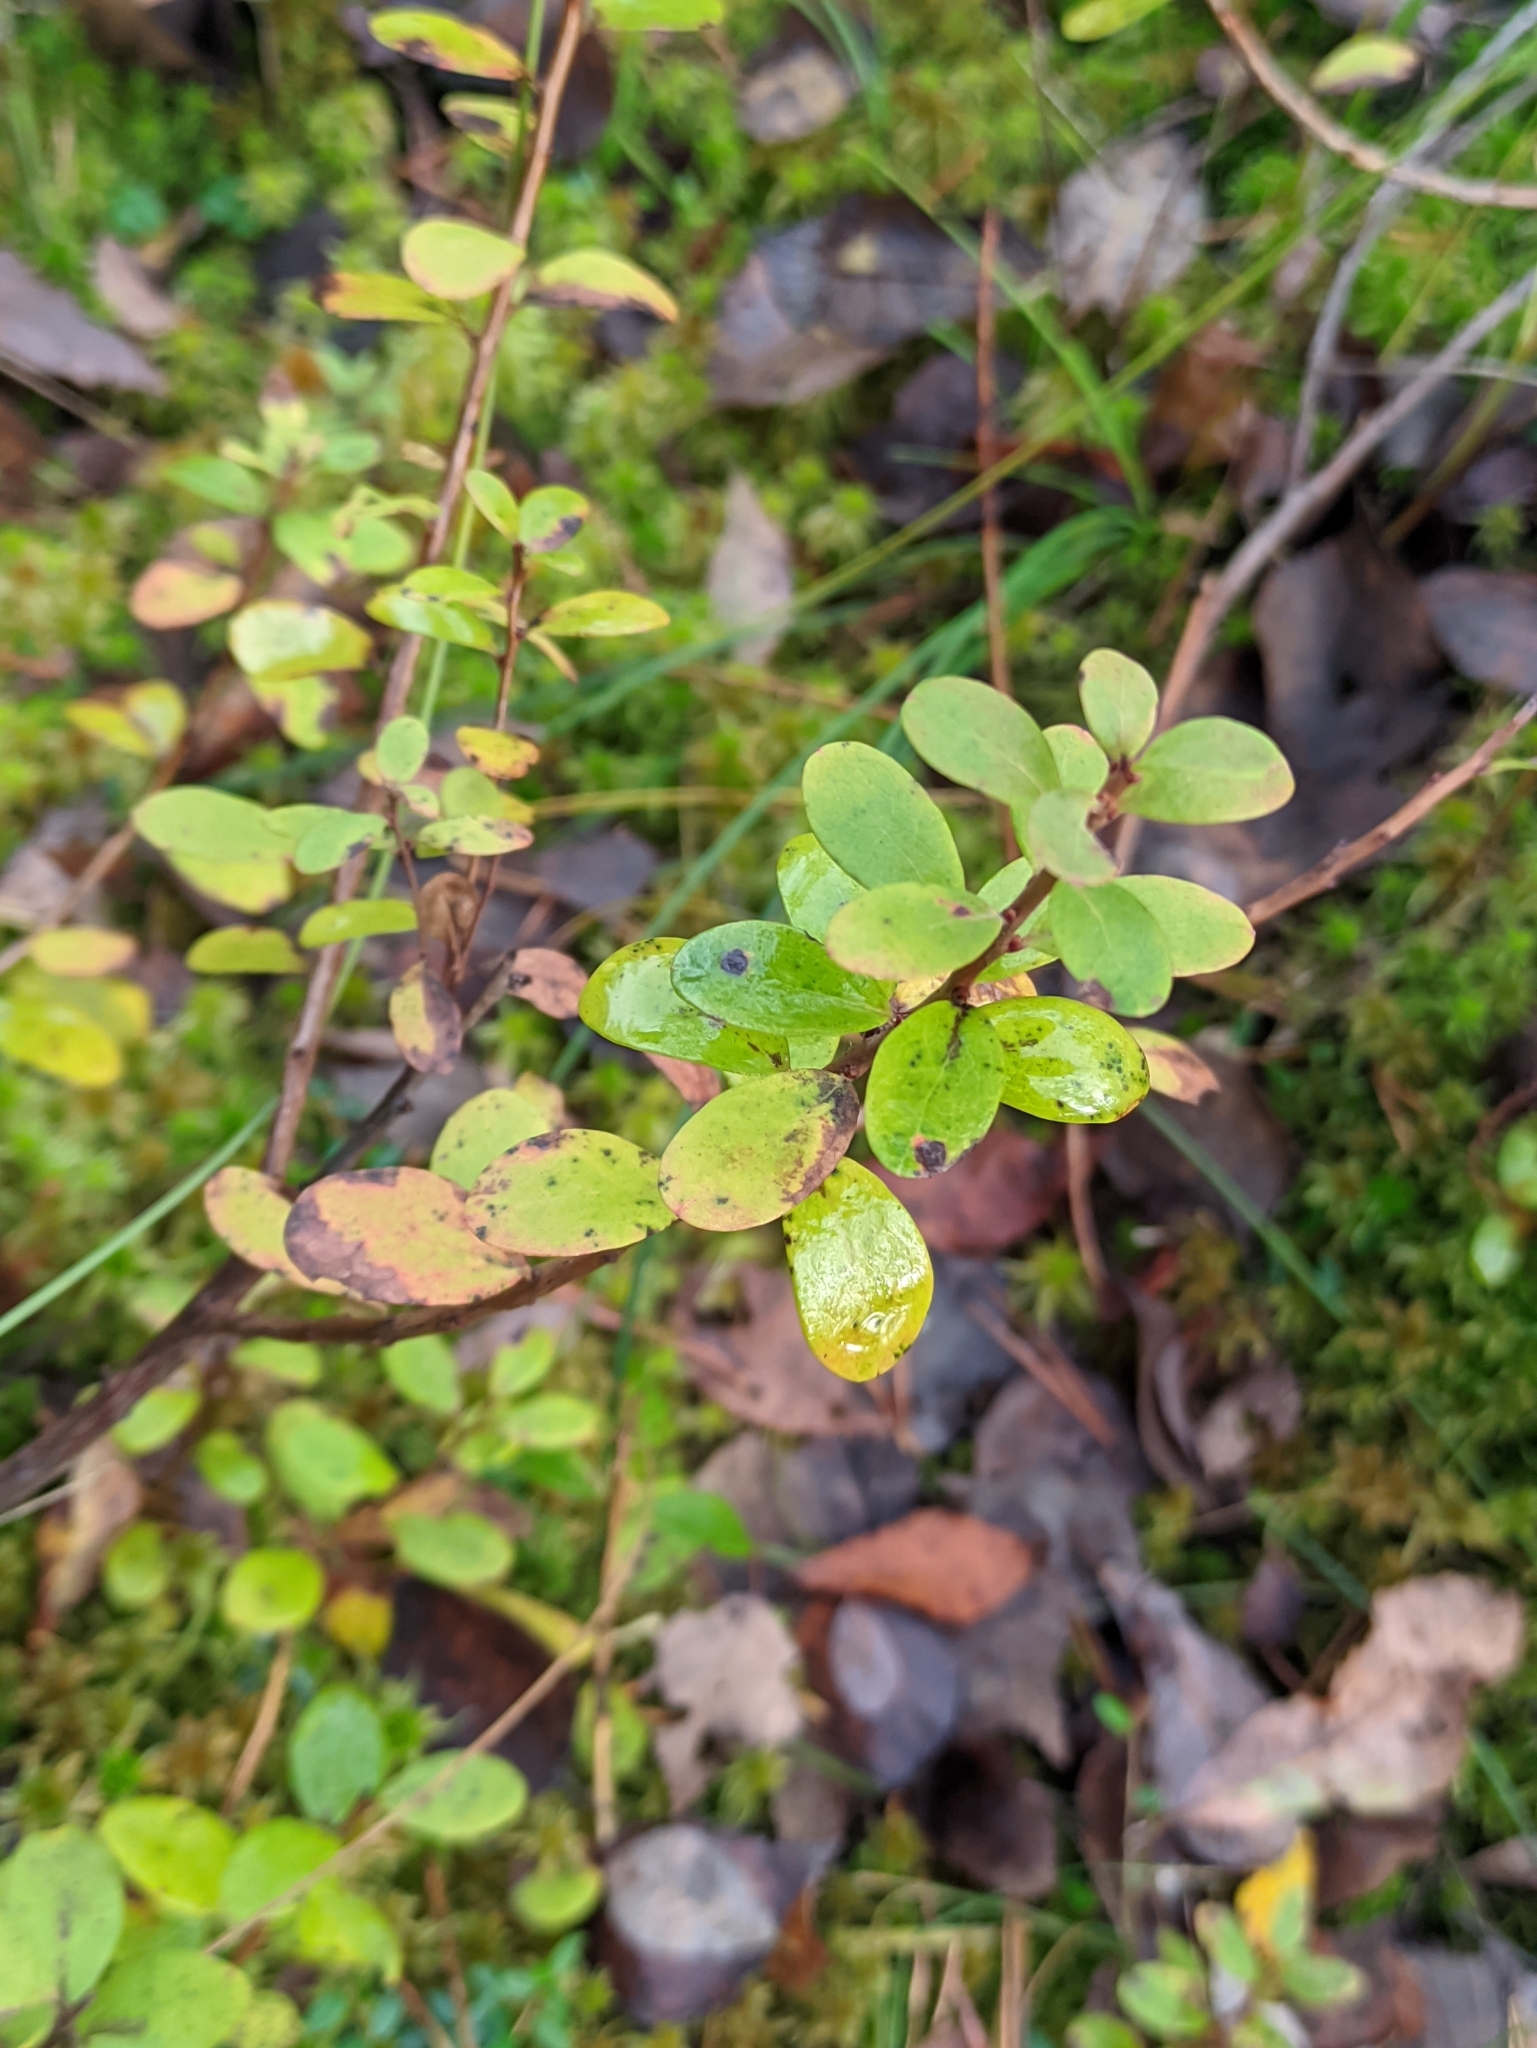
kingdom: Plantae
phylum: Tracheophyta
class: Magnoliopsida
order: Ericales
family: Ericaceae
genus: Vaccinium
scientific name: Vaccinium uliginosum
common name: Bog bilberry
